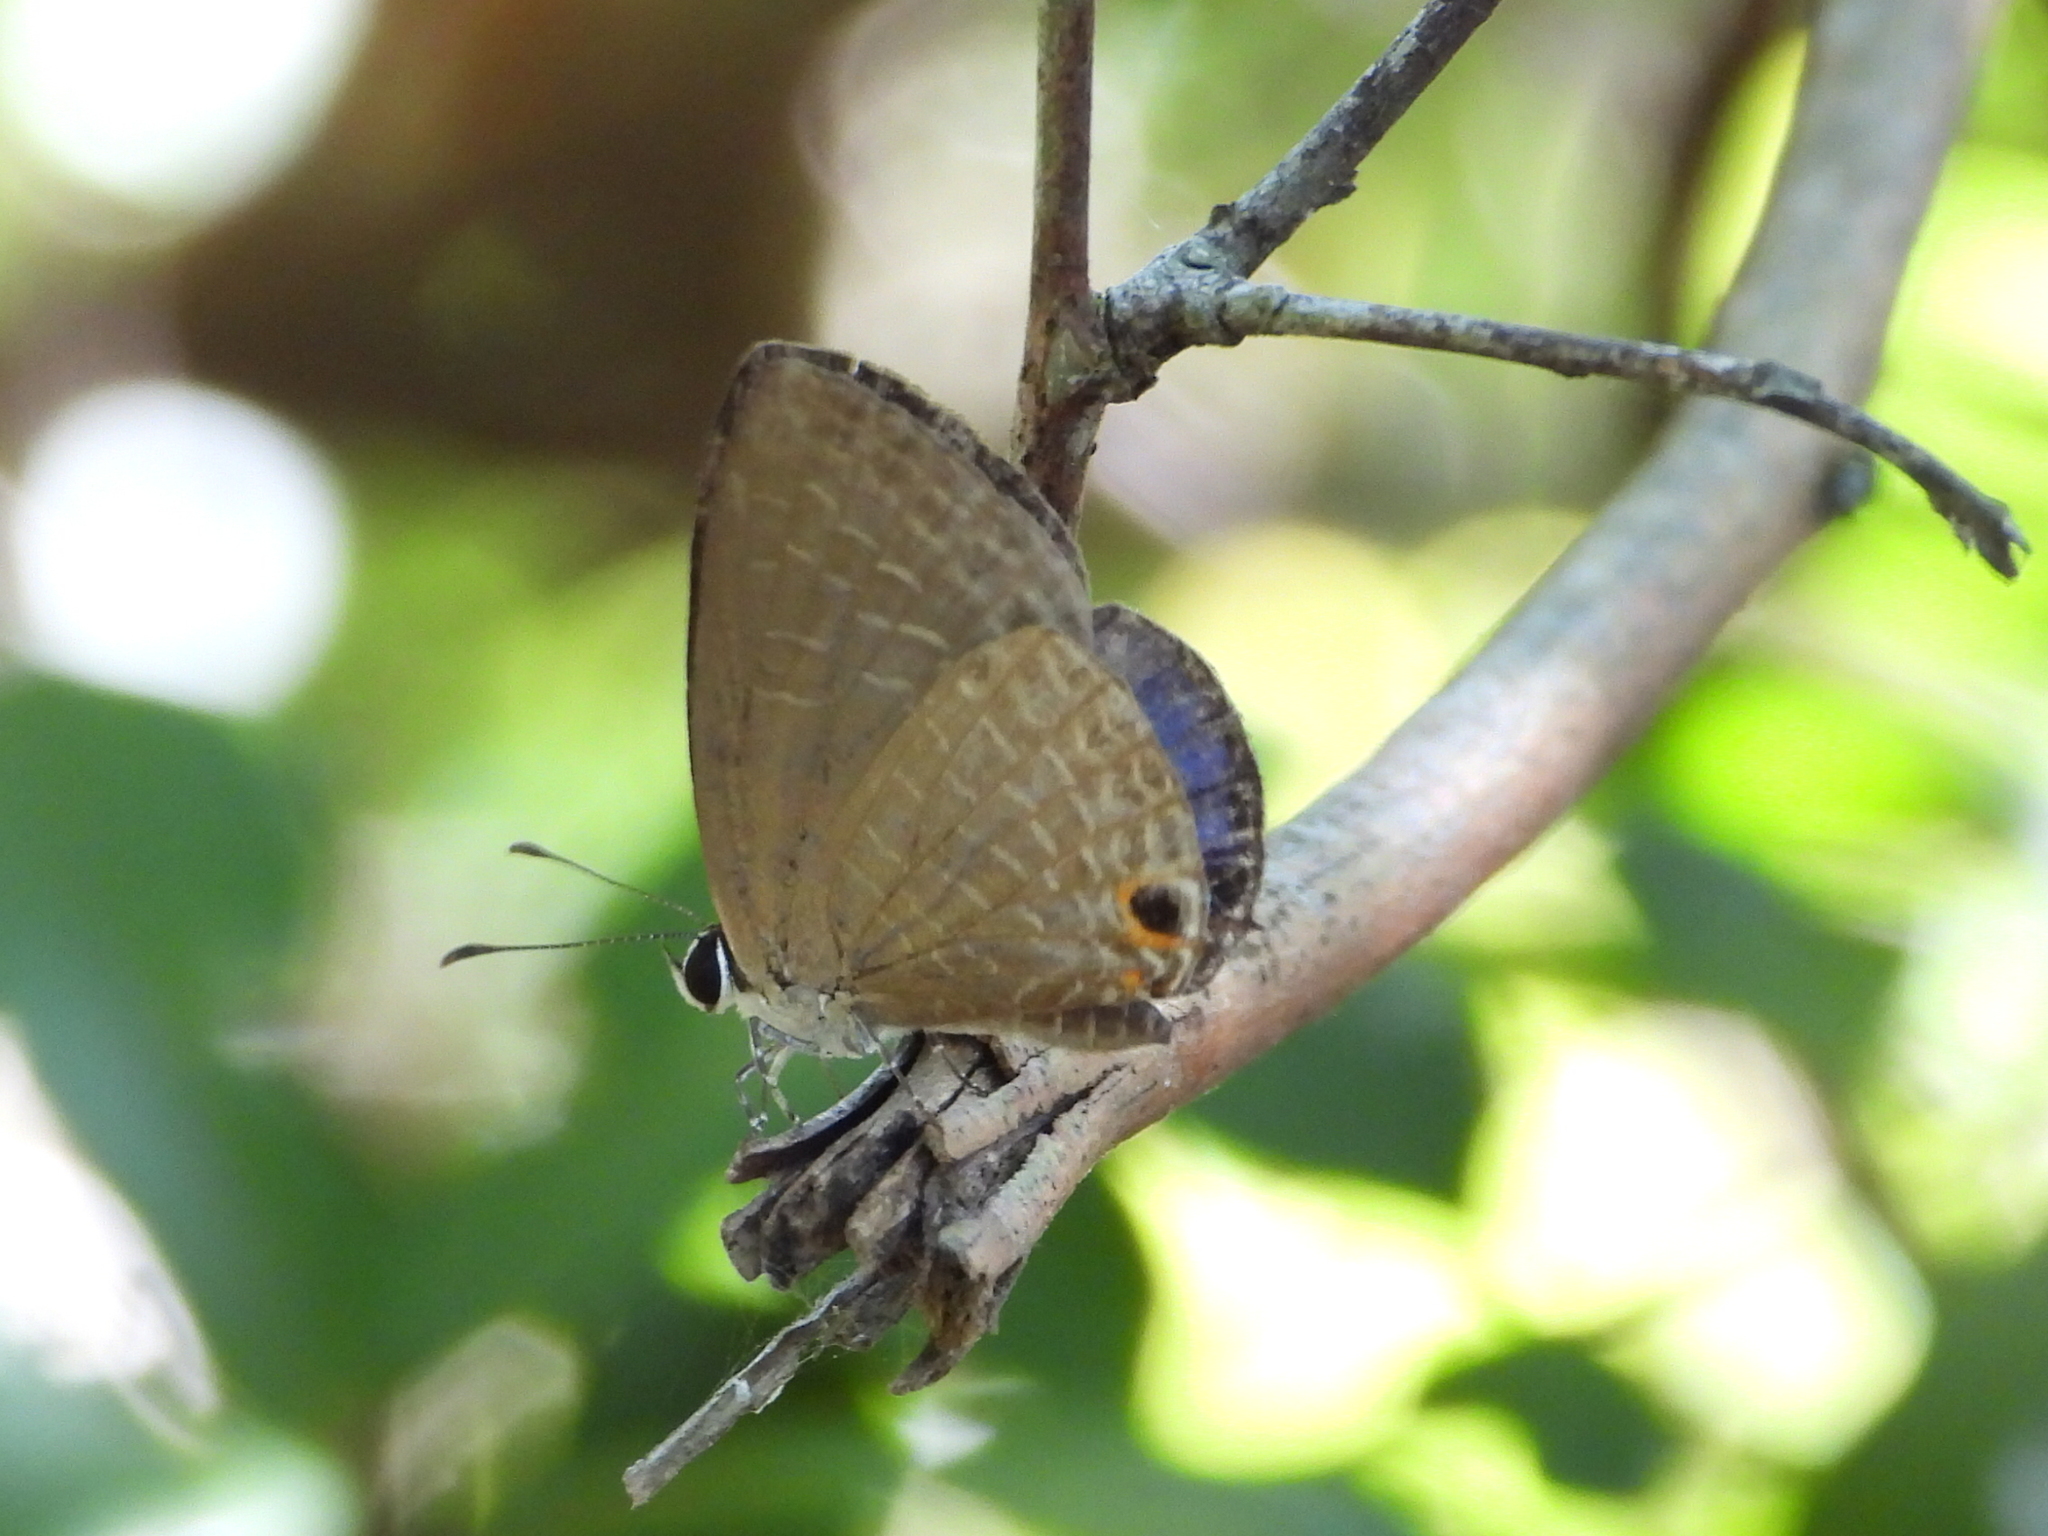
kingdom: Animalia
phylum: Arthropoda
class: Insecta
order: Lepidoptera
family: Lycaenidae
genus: Jamides
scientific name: Jamides bochus
